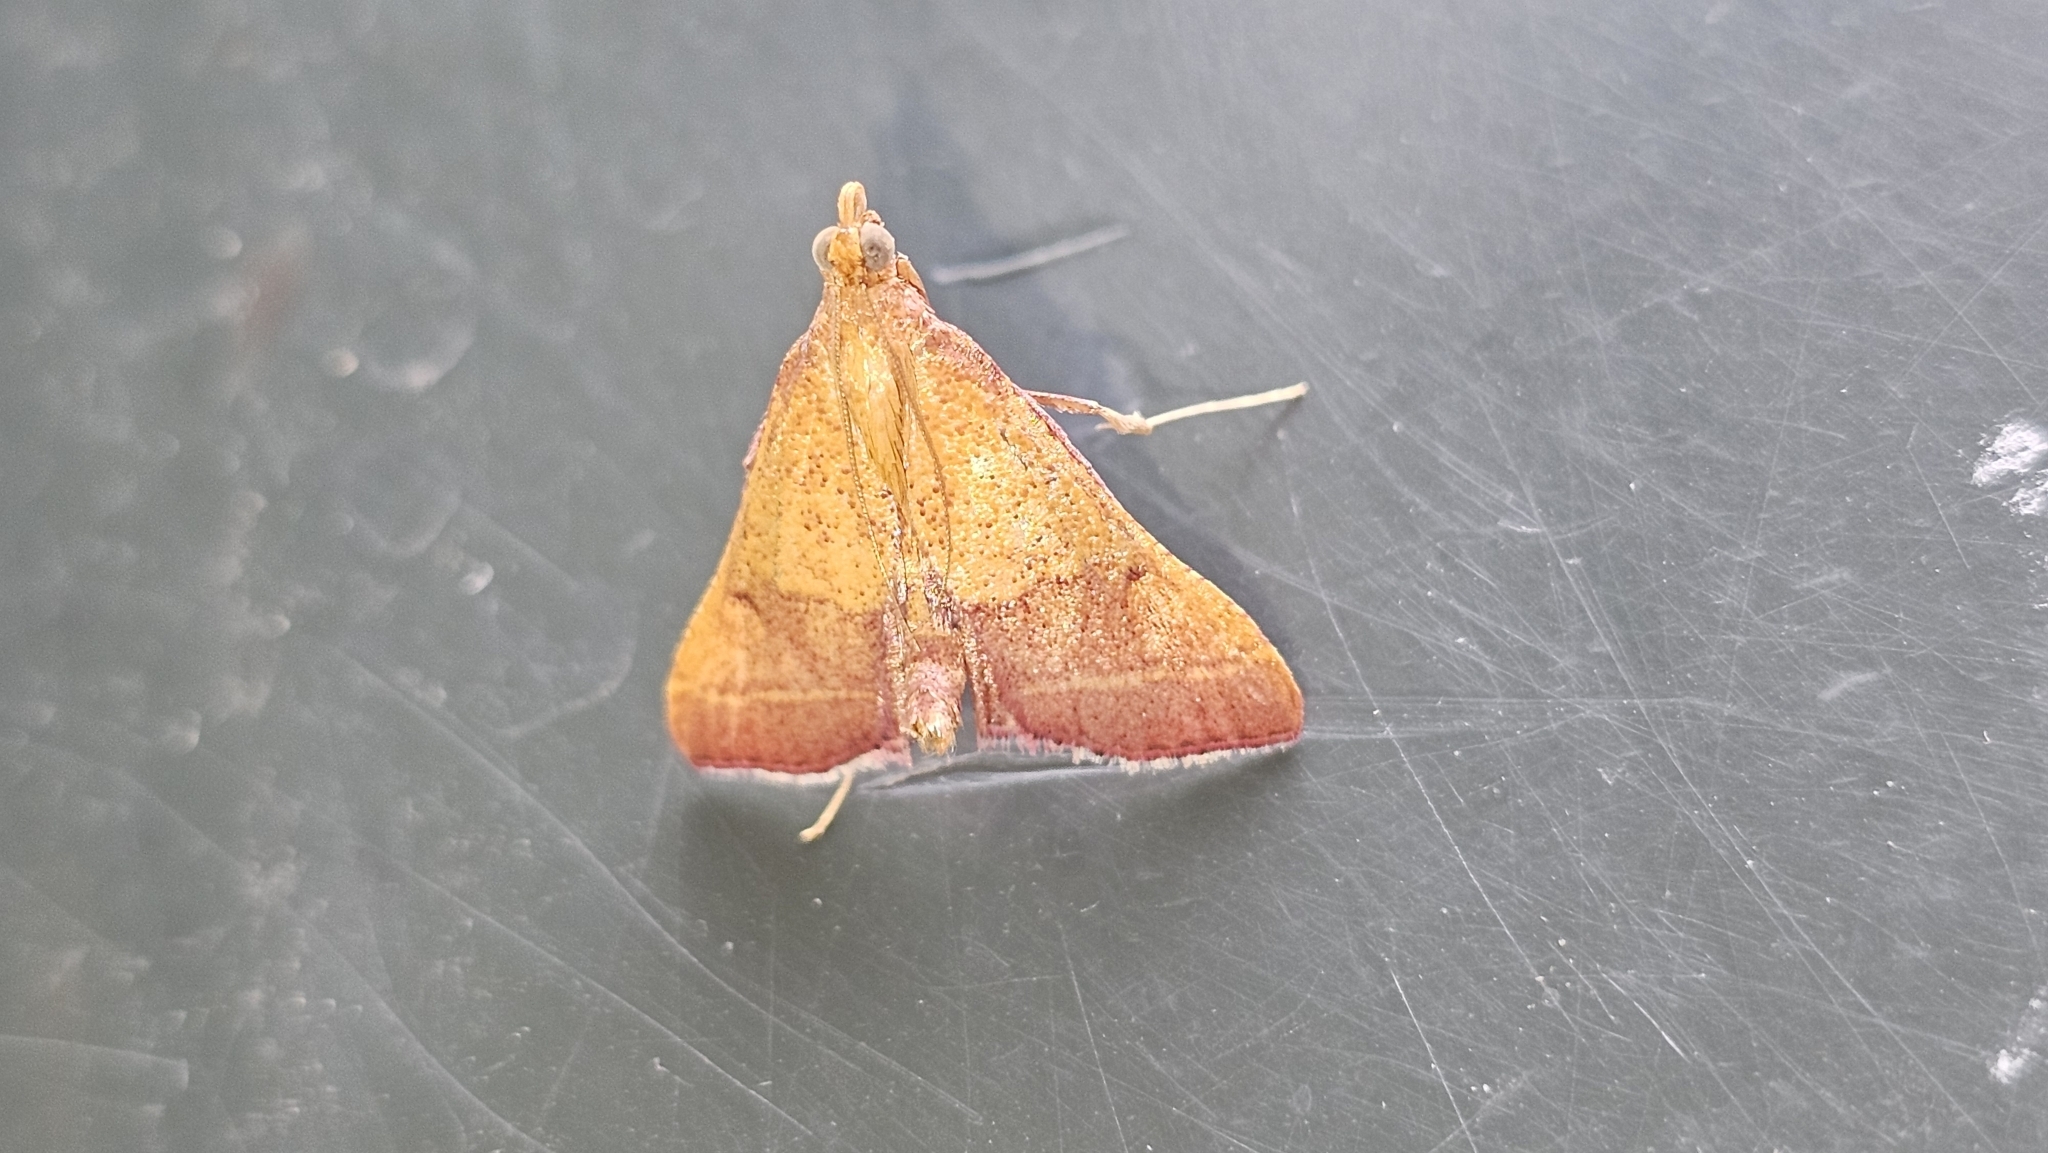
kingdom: Animalia
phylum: Arthropoda
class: Insecta
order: Lepidoptera
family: Pyralidae
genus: Endotricha
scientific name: Endotricha pyrosalis
